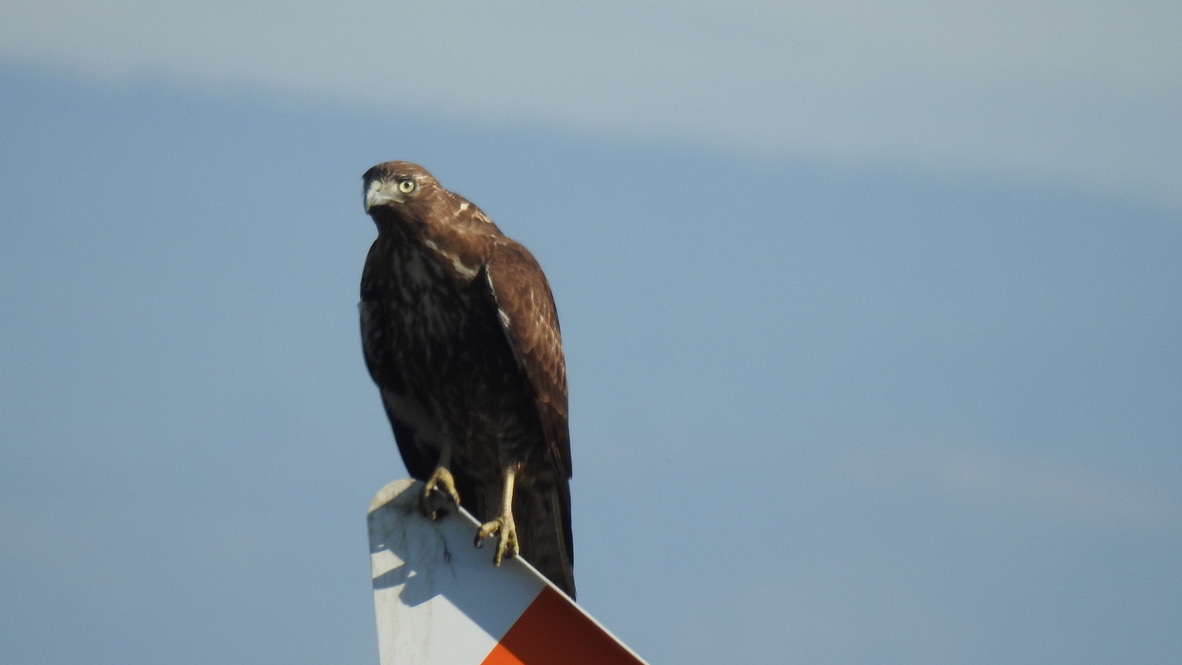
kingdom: Animalia
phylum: Chordata
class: Aves
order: Accipitriformes
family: Accipitridae
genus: Buteo
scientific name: Buteo jamaicensis
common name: Red-tailed hawk
